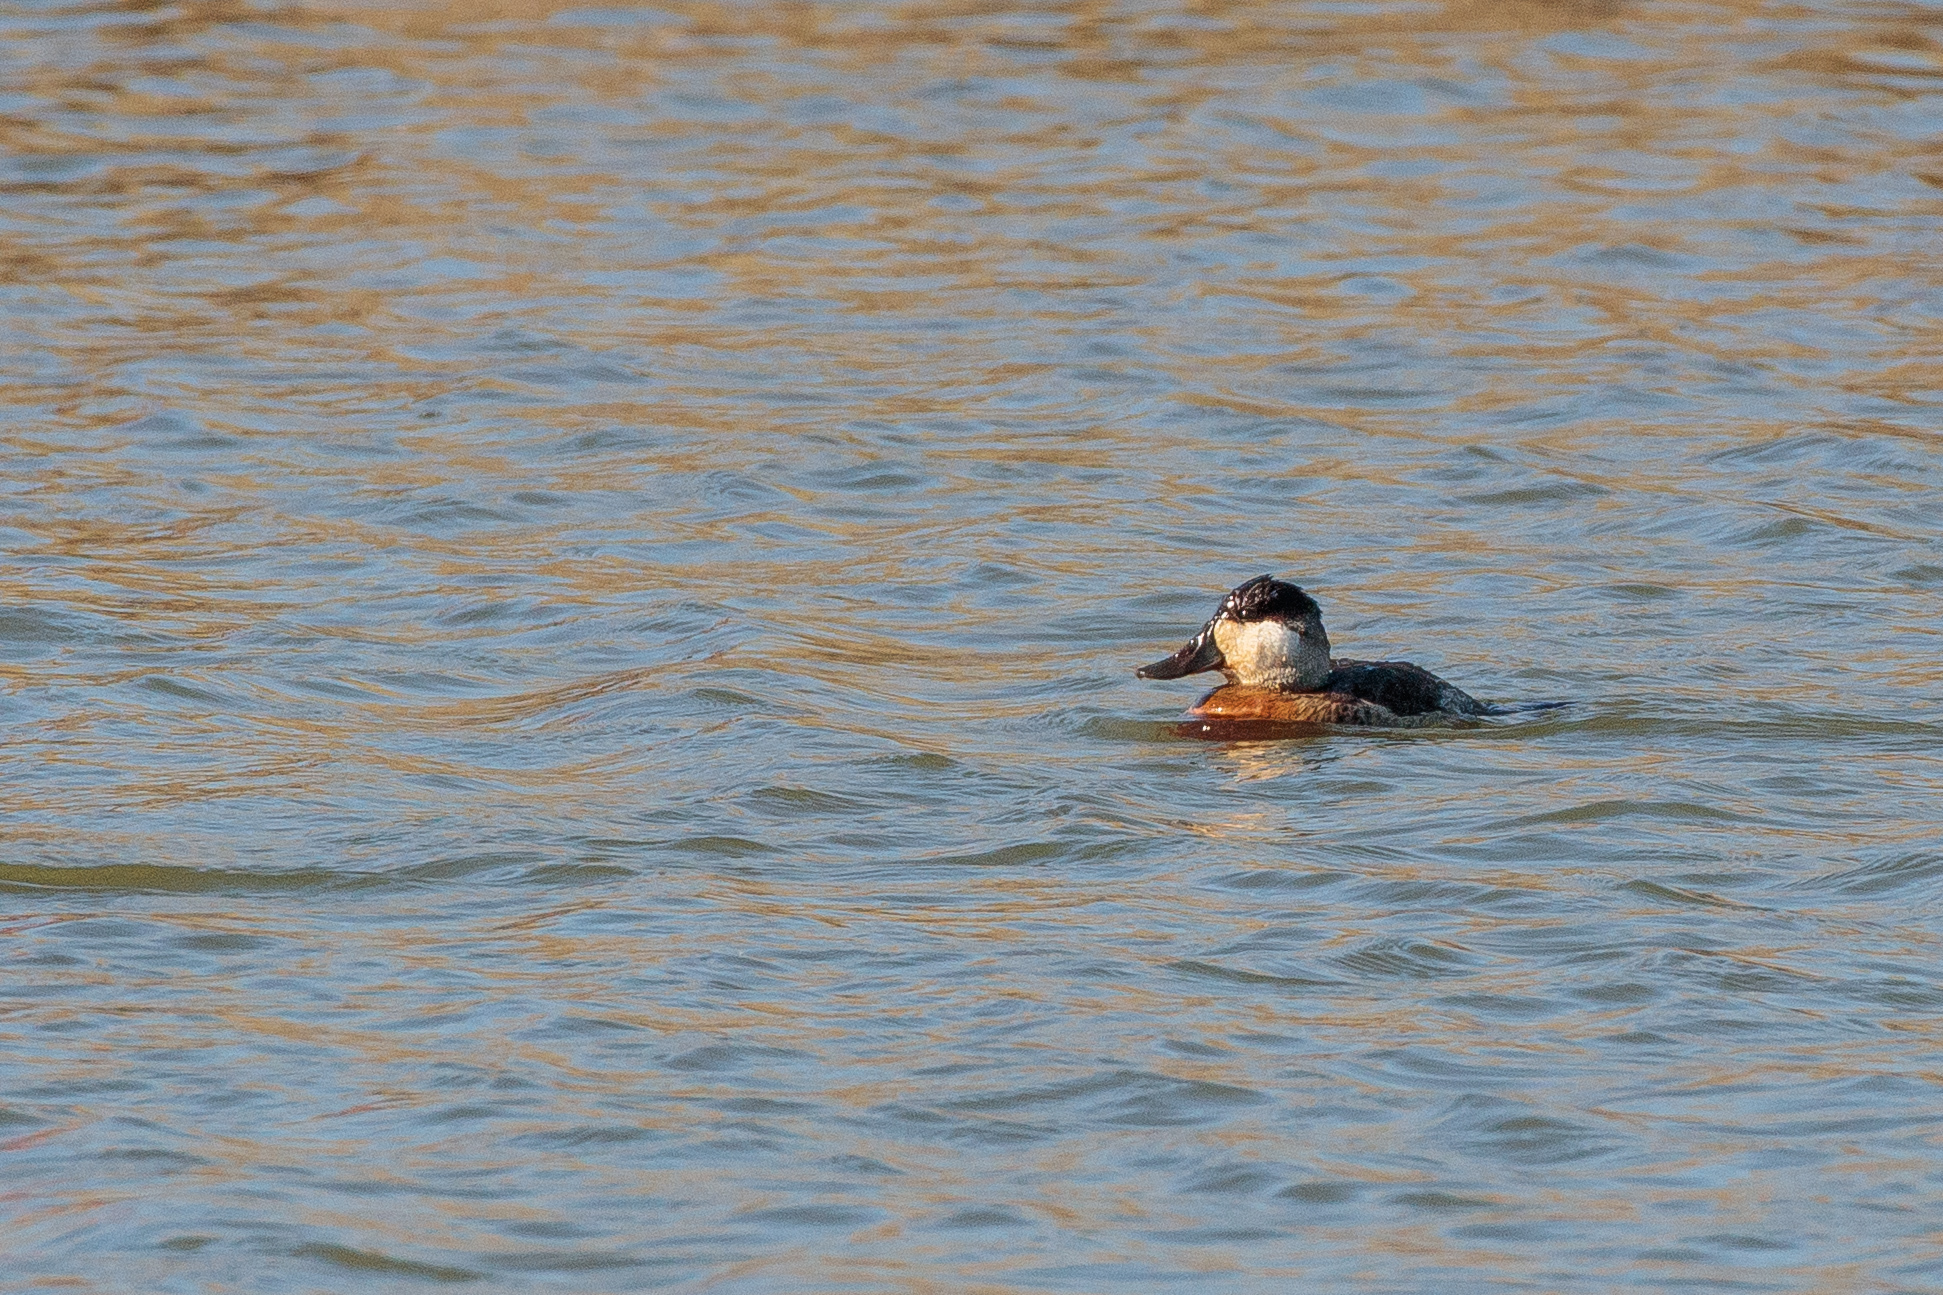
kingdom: Animalia
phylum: Chordata
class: Aves
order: Anseriformes
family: Anatidae
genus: Oxyura
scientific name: Oxyura jamaicensis
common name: Ruddy duck
